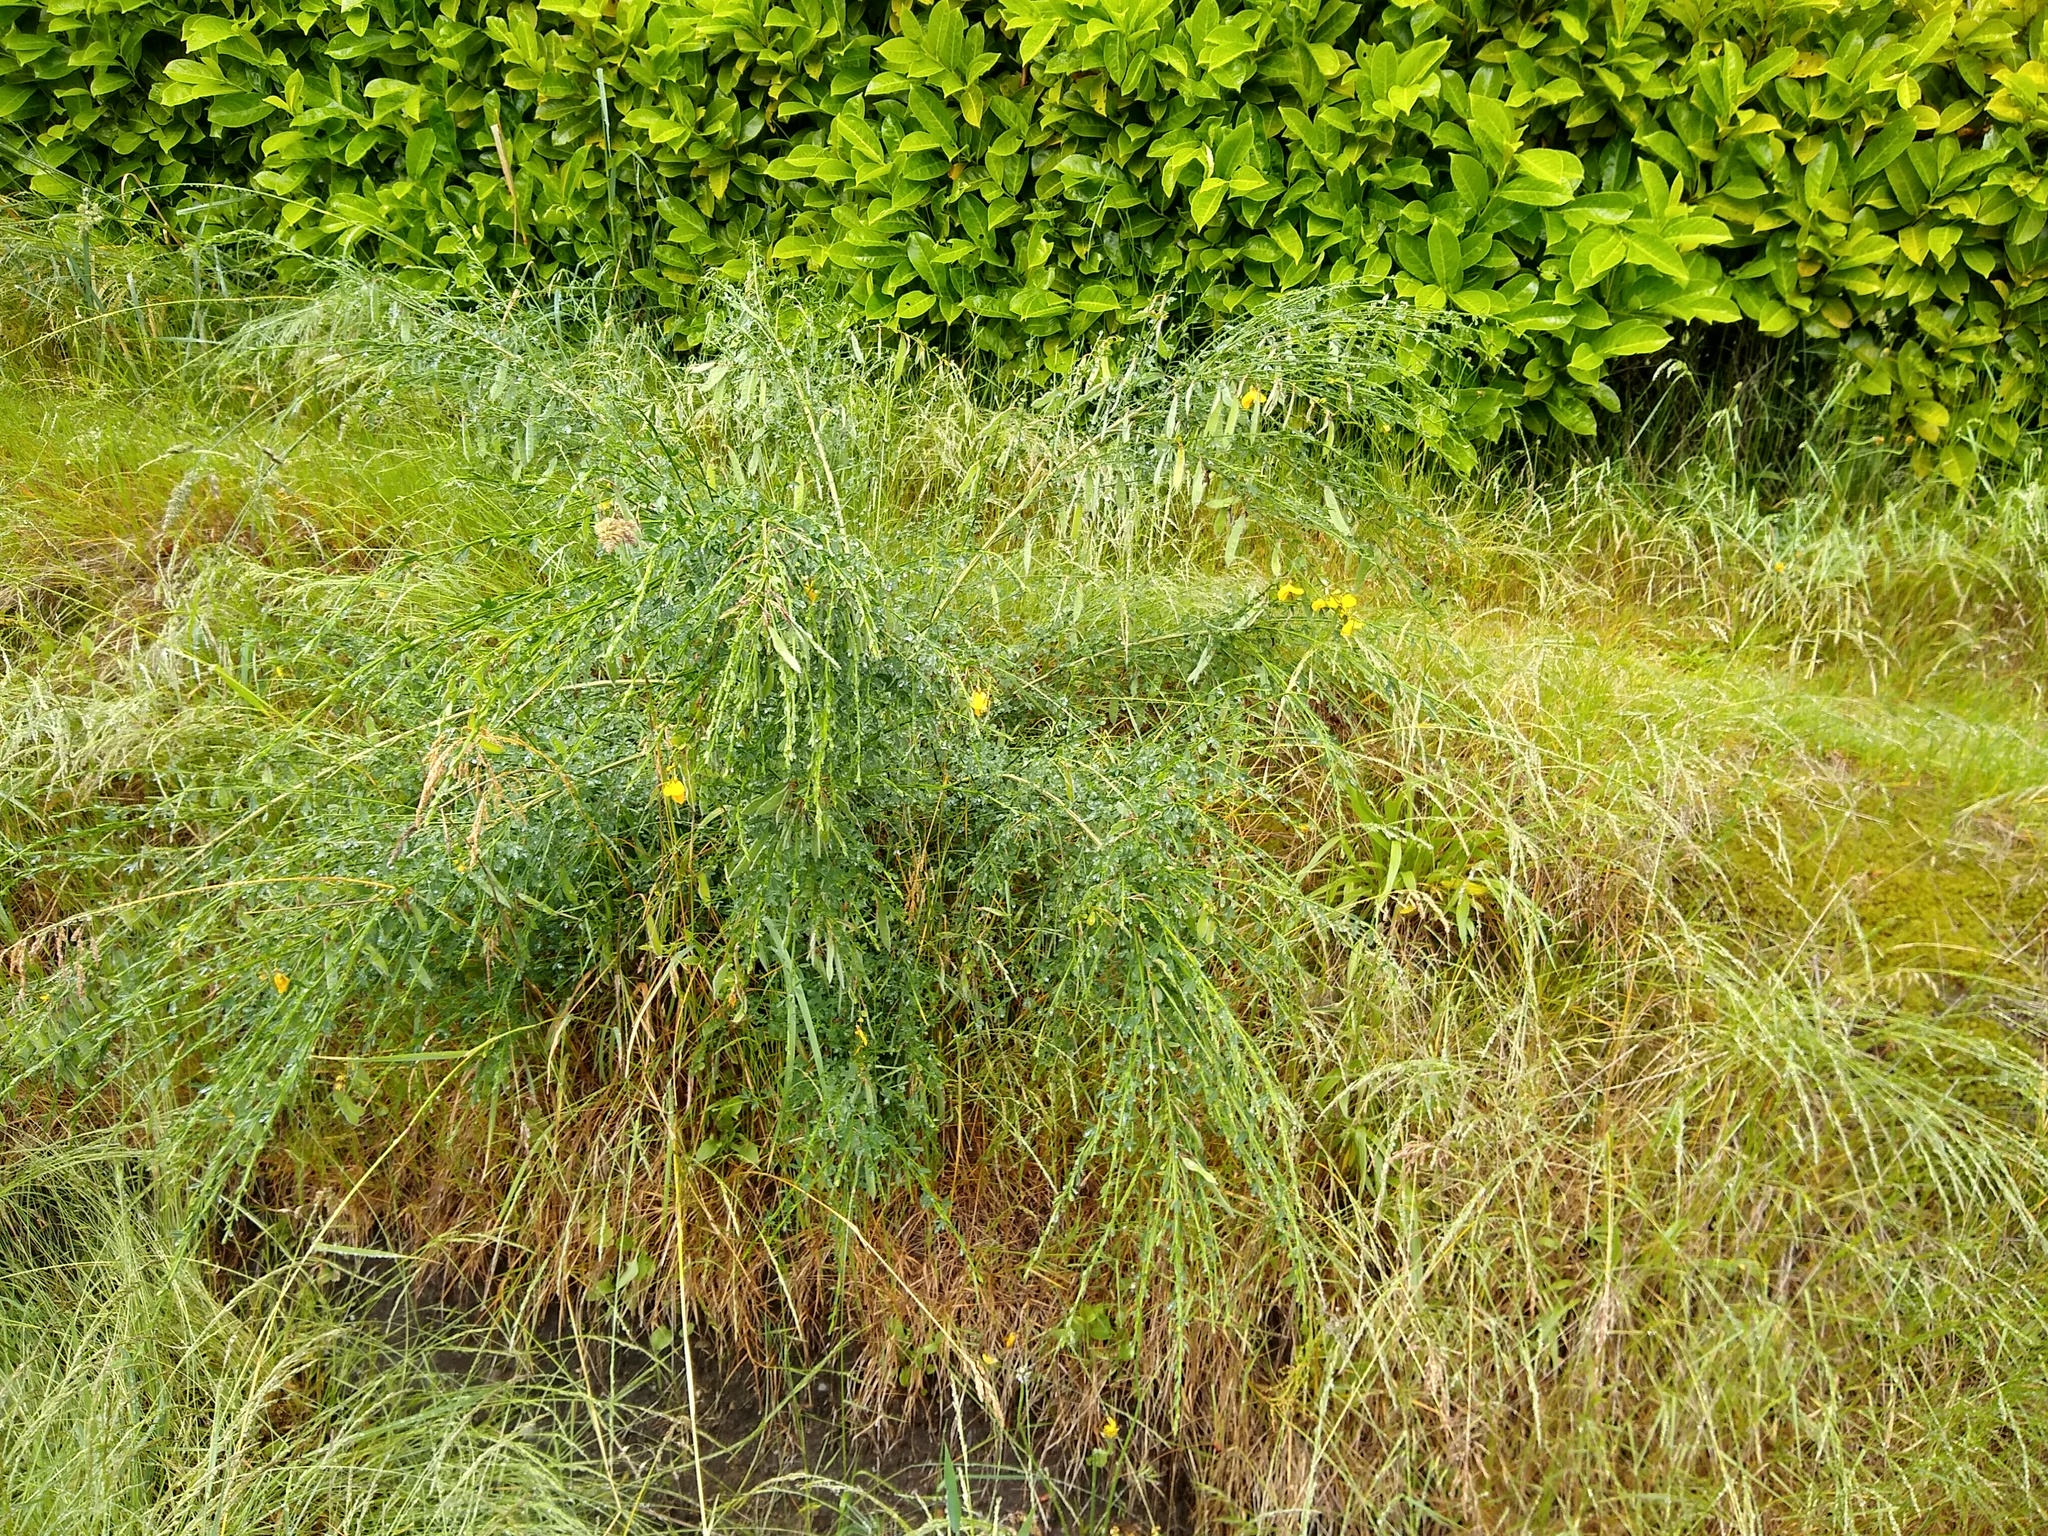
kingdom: Plantae
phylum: Tracheophyta
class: Magnoliopsida
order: Fabales
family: Fabaceae
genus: Cytisus
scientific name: Cytisus scoparius
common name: Scotch broom
